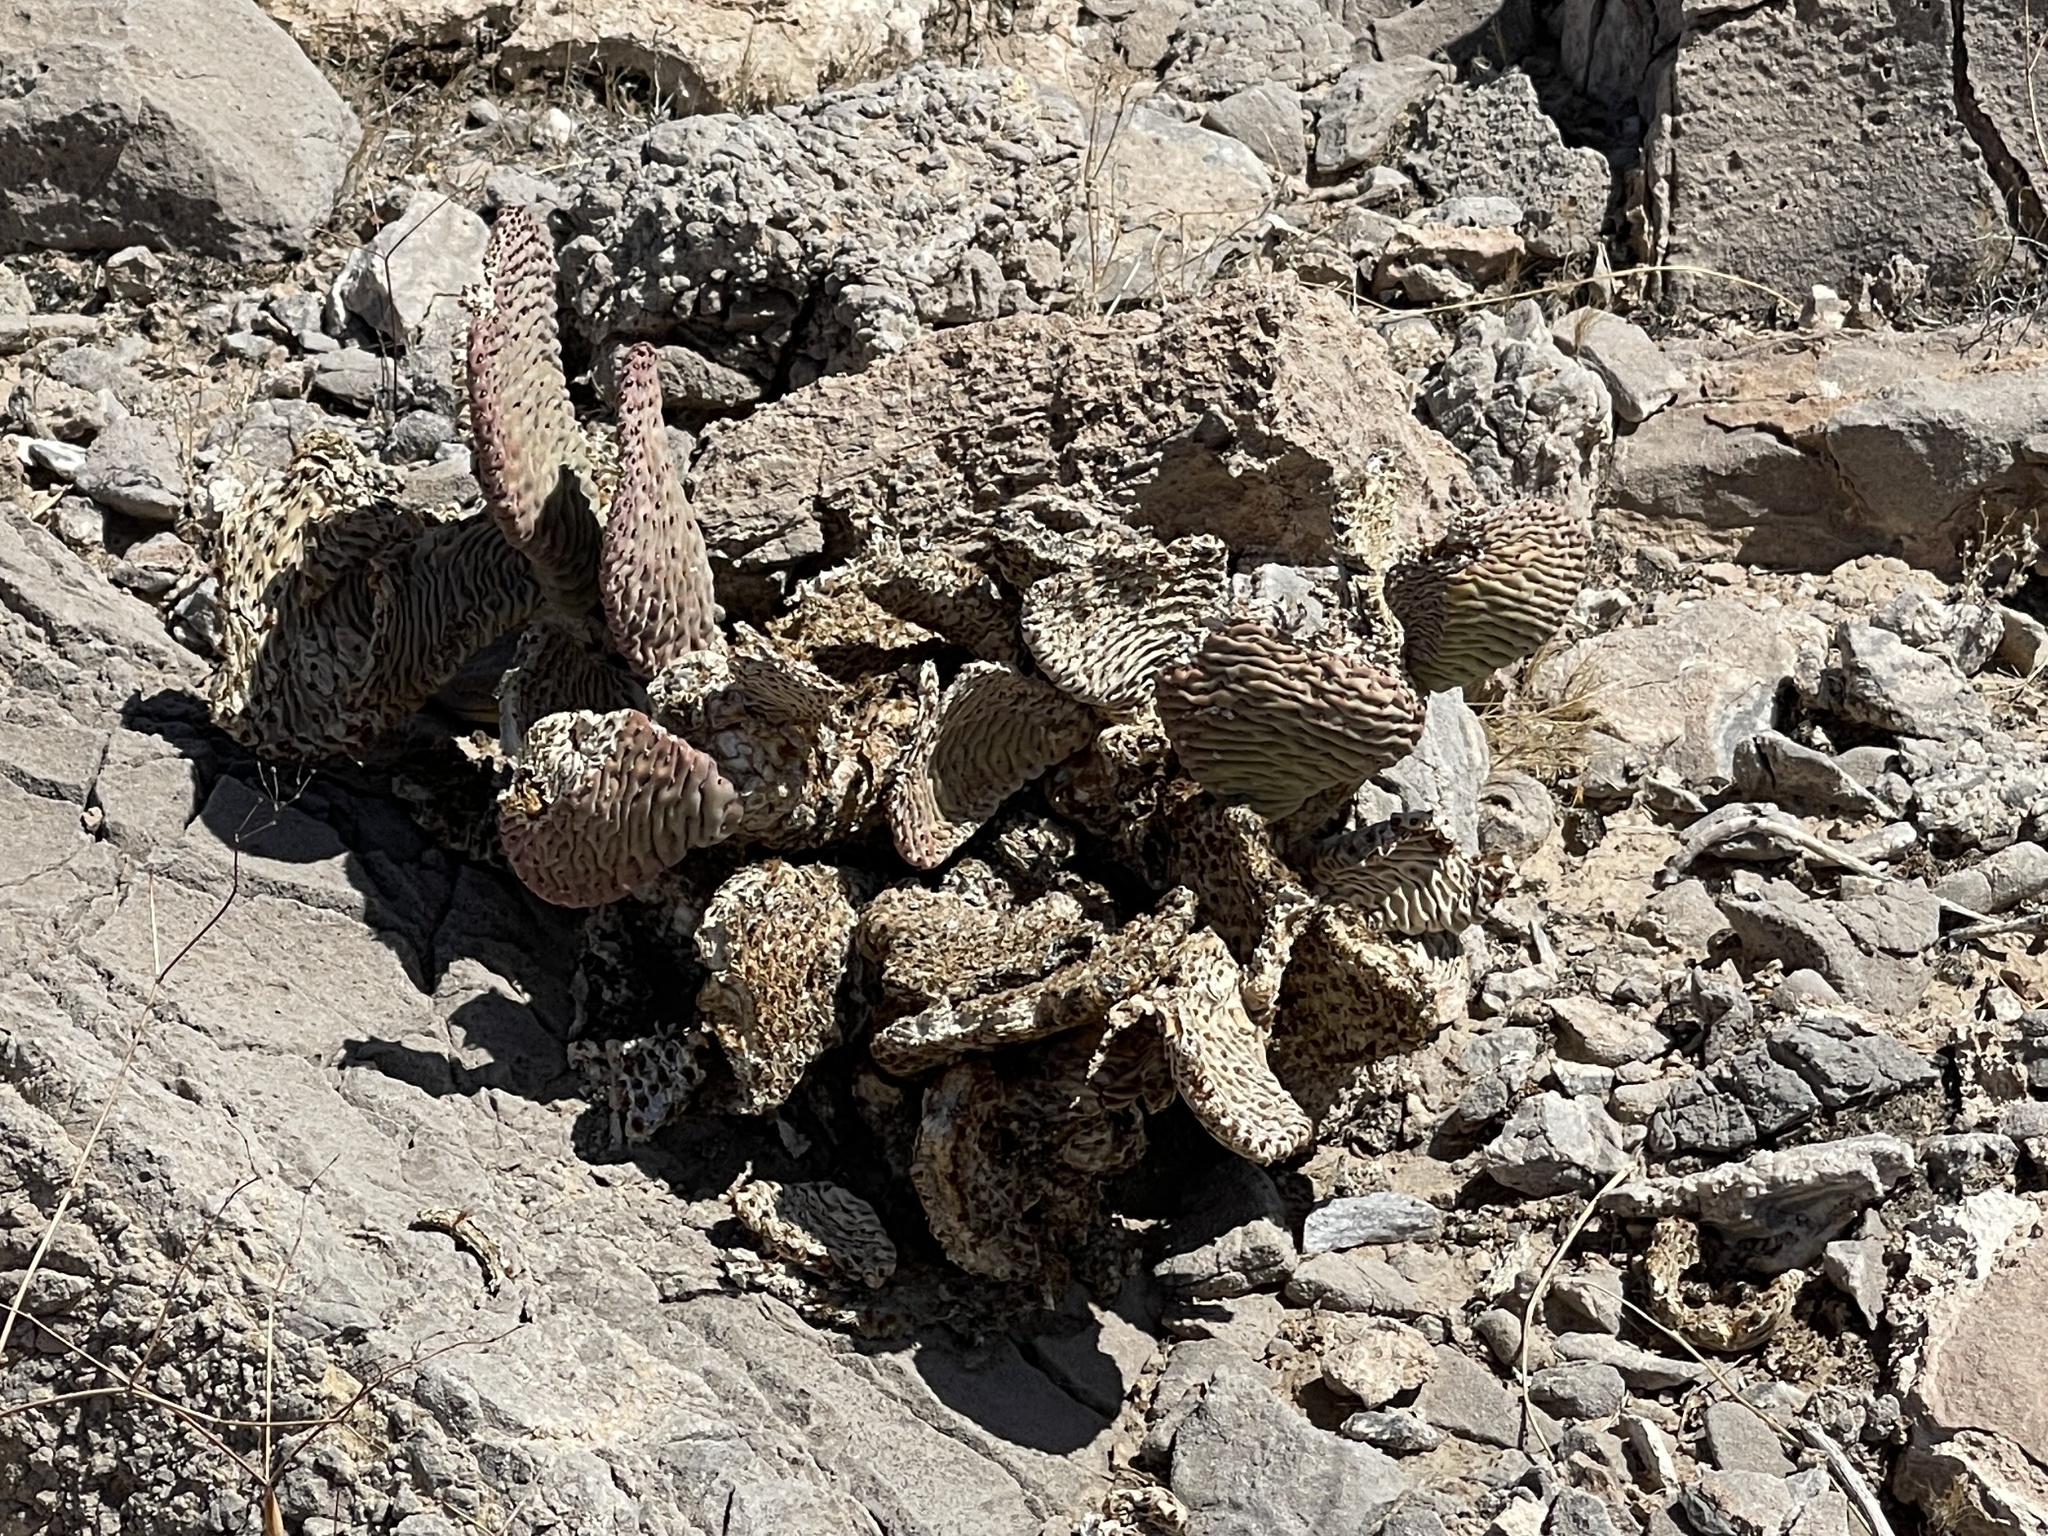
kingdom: Plantae
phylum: Tracheophyta
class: Magnoliopsida
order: Caryophyllales
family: Cactaceae
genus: Opuntia
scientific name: Opuntia basilaris
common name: Beavertail prickly-pear
